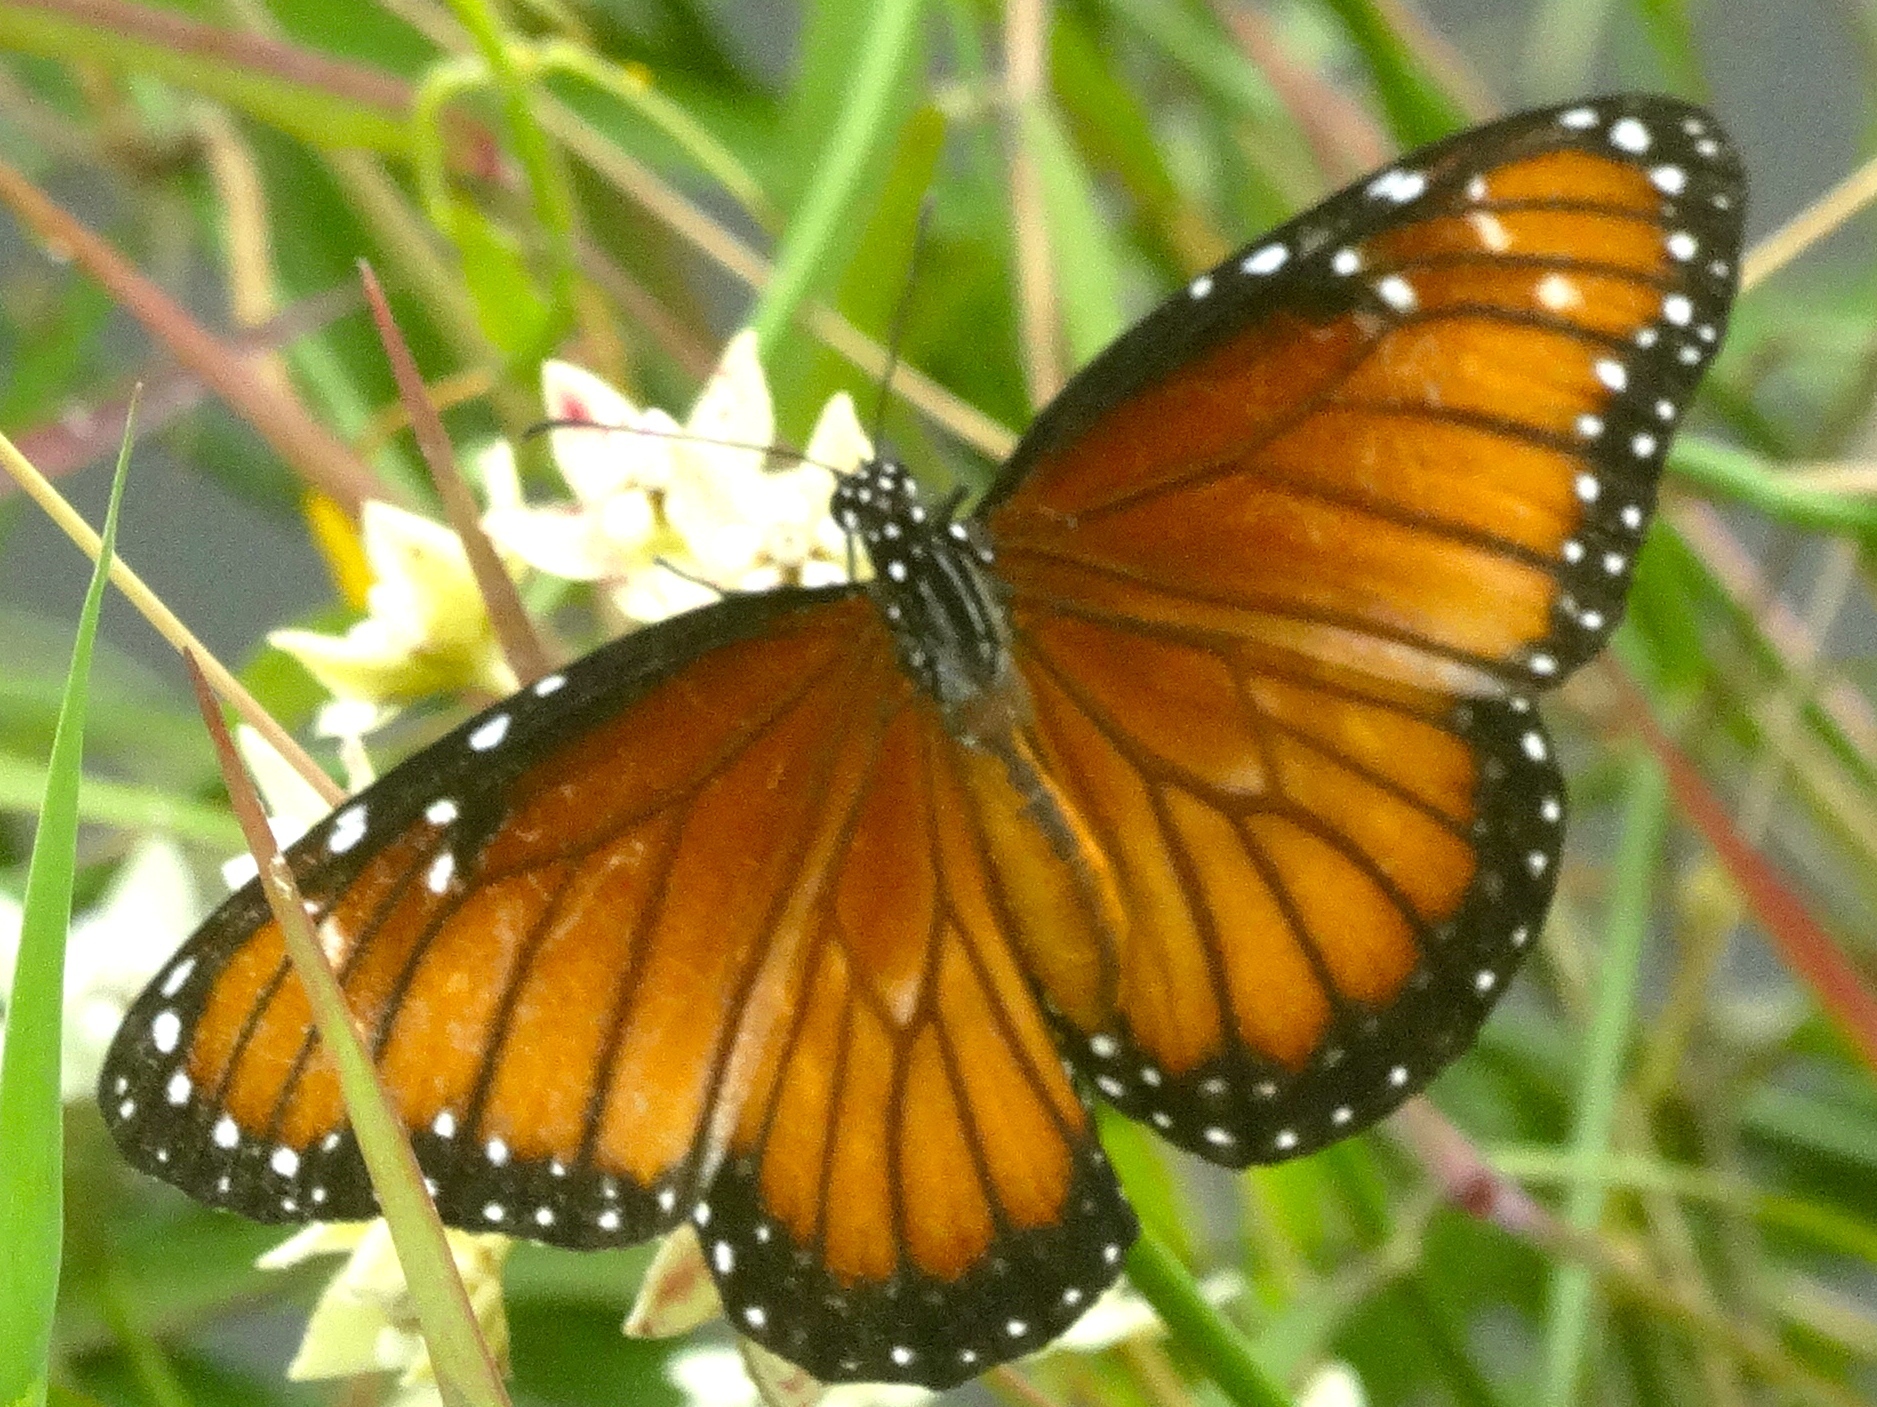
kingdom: Animalia
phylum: Arthropoda
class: Insecta
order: Lepidoptera
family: Nymphalidae
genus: Danaus
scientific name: Danaus eresimus
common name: Soldier
